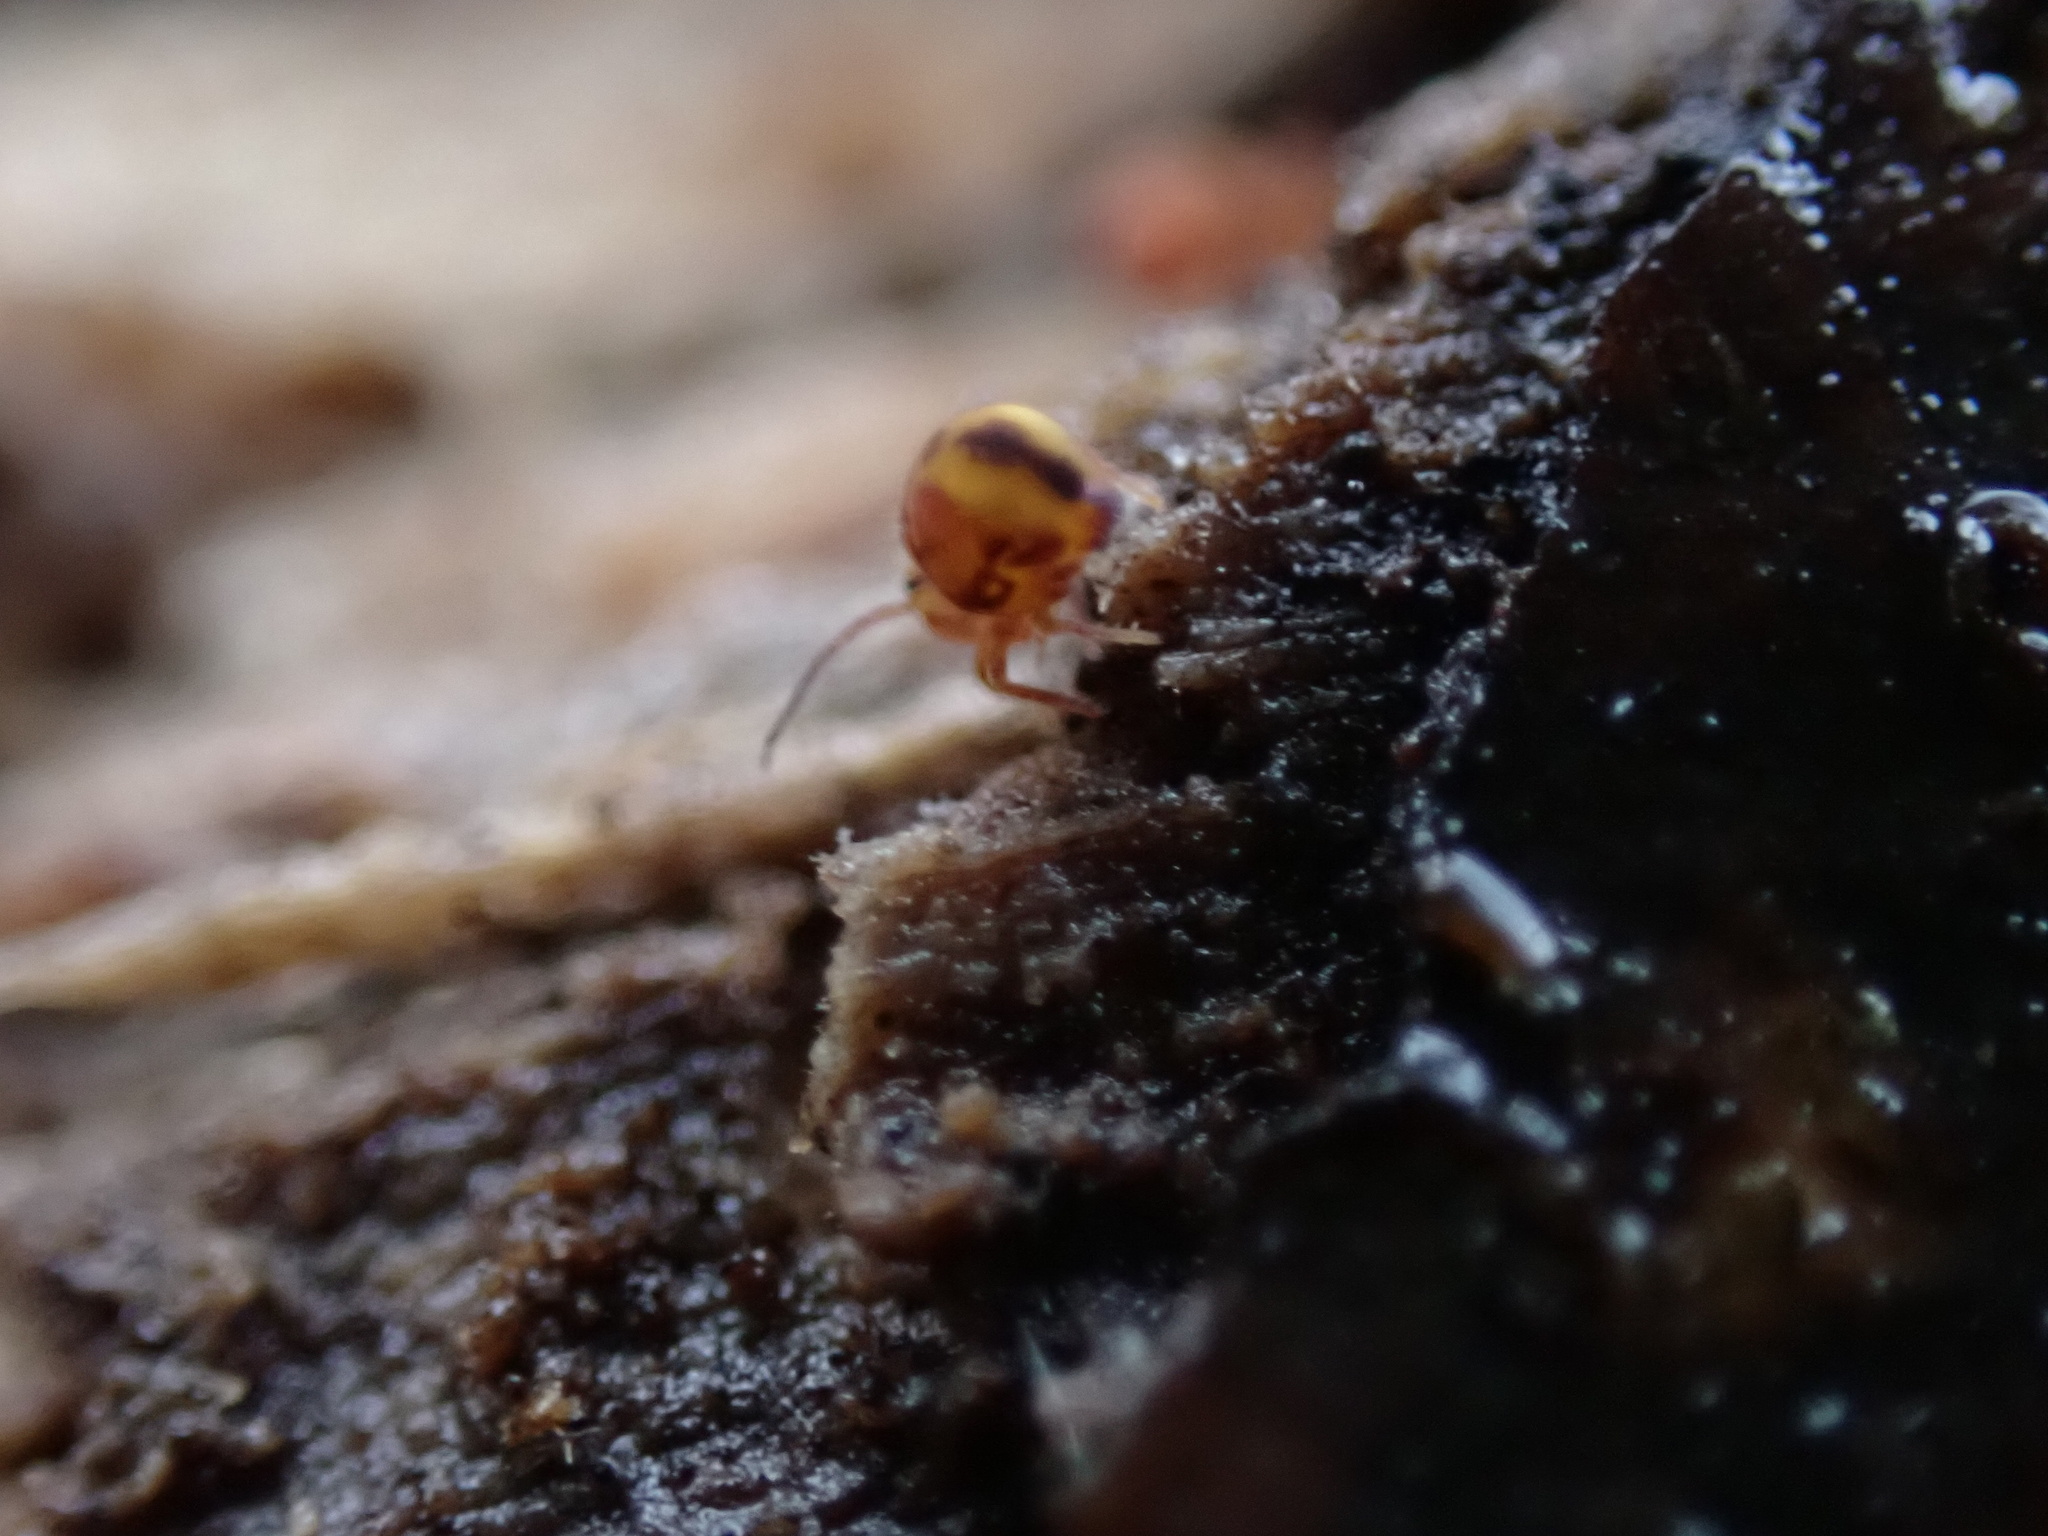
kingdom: Animalia
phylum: Arthropoda
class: Collembola
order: Symphypleona
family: Dicyrtomidae
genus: Dicyrtomina
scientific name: Dicyrtomina minuta
